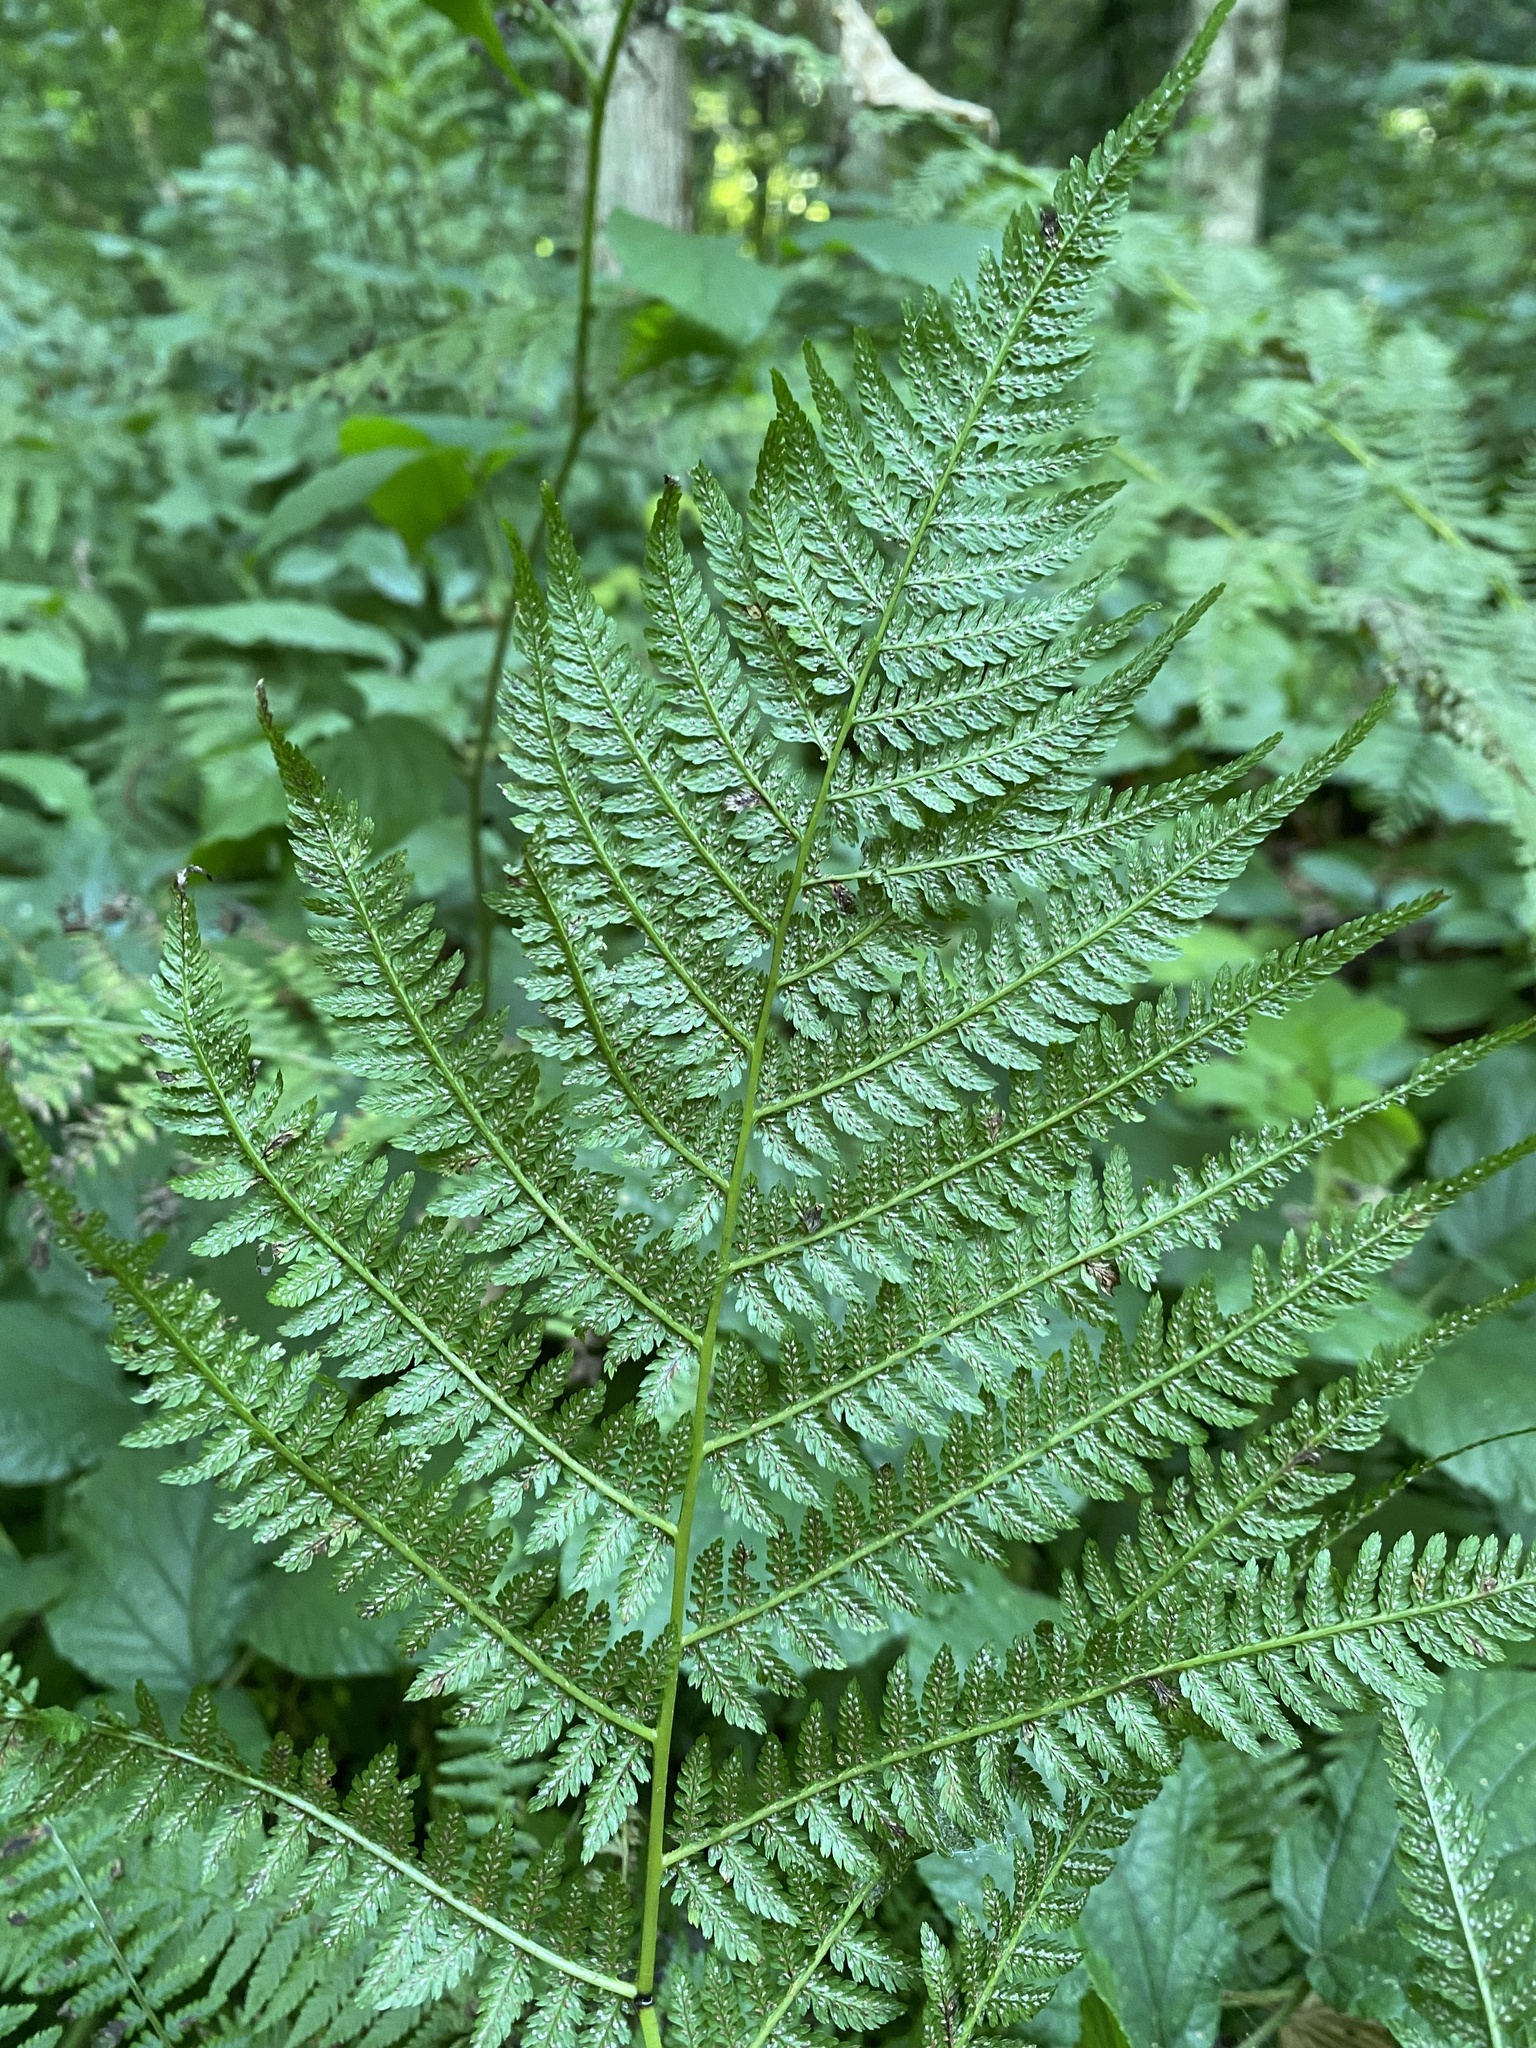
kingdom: Plantae
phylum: Tracheophyta
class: Polypodiopsida
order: Polypodiales
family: Athyriaceae
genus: Athyrium
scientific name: Athyrium filix-femina
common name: Lady fern
